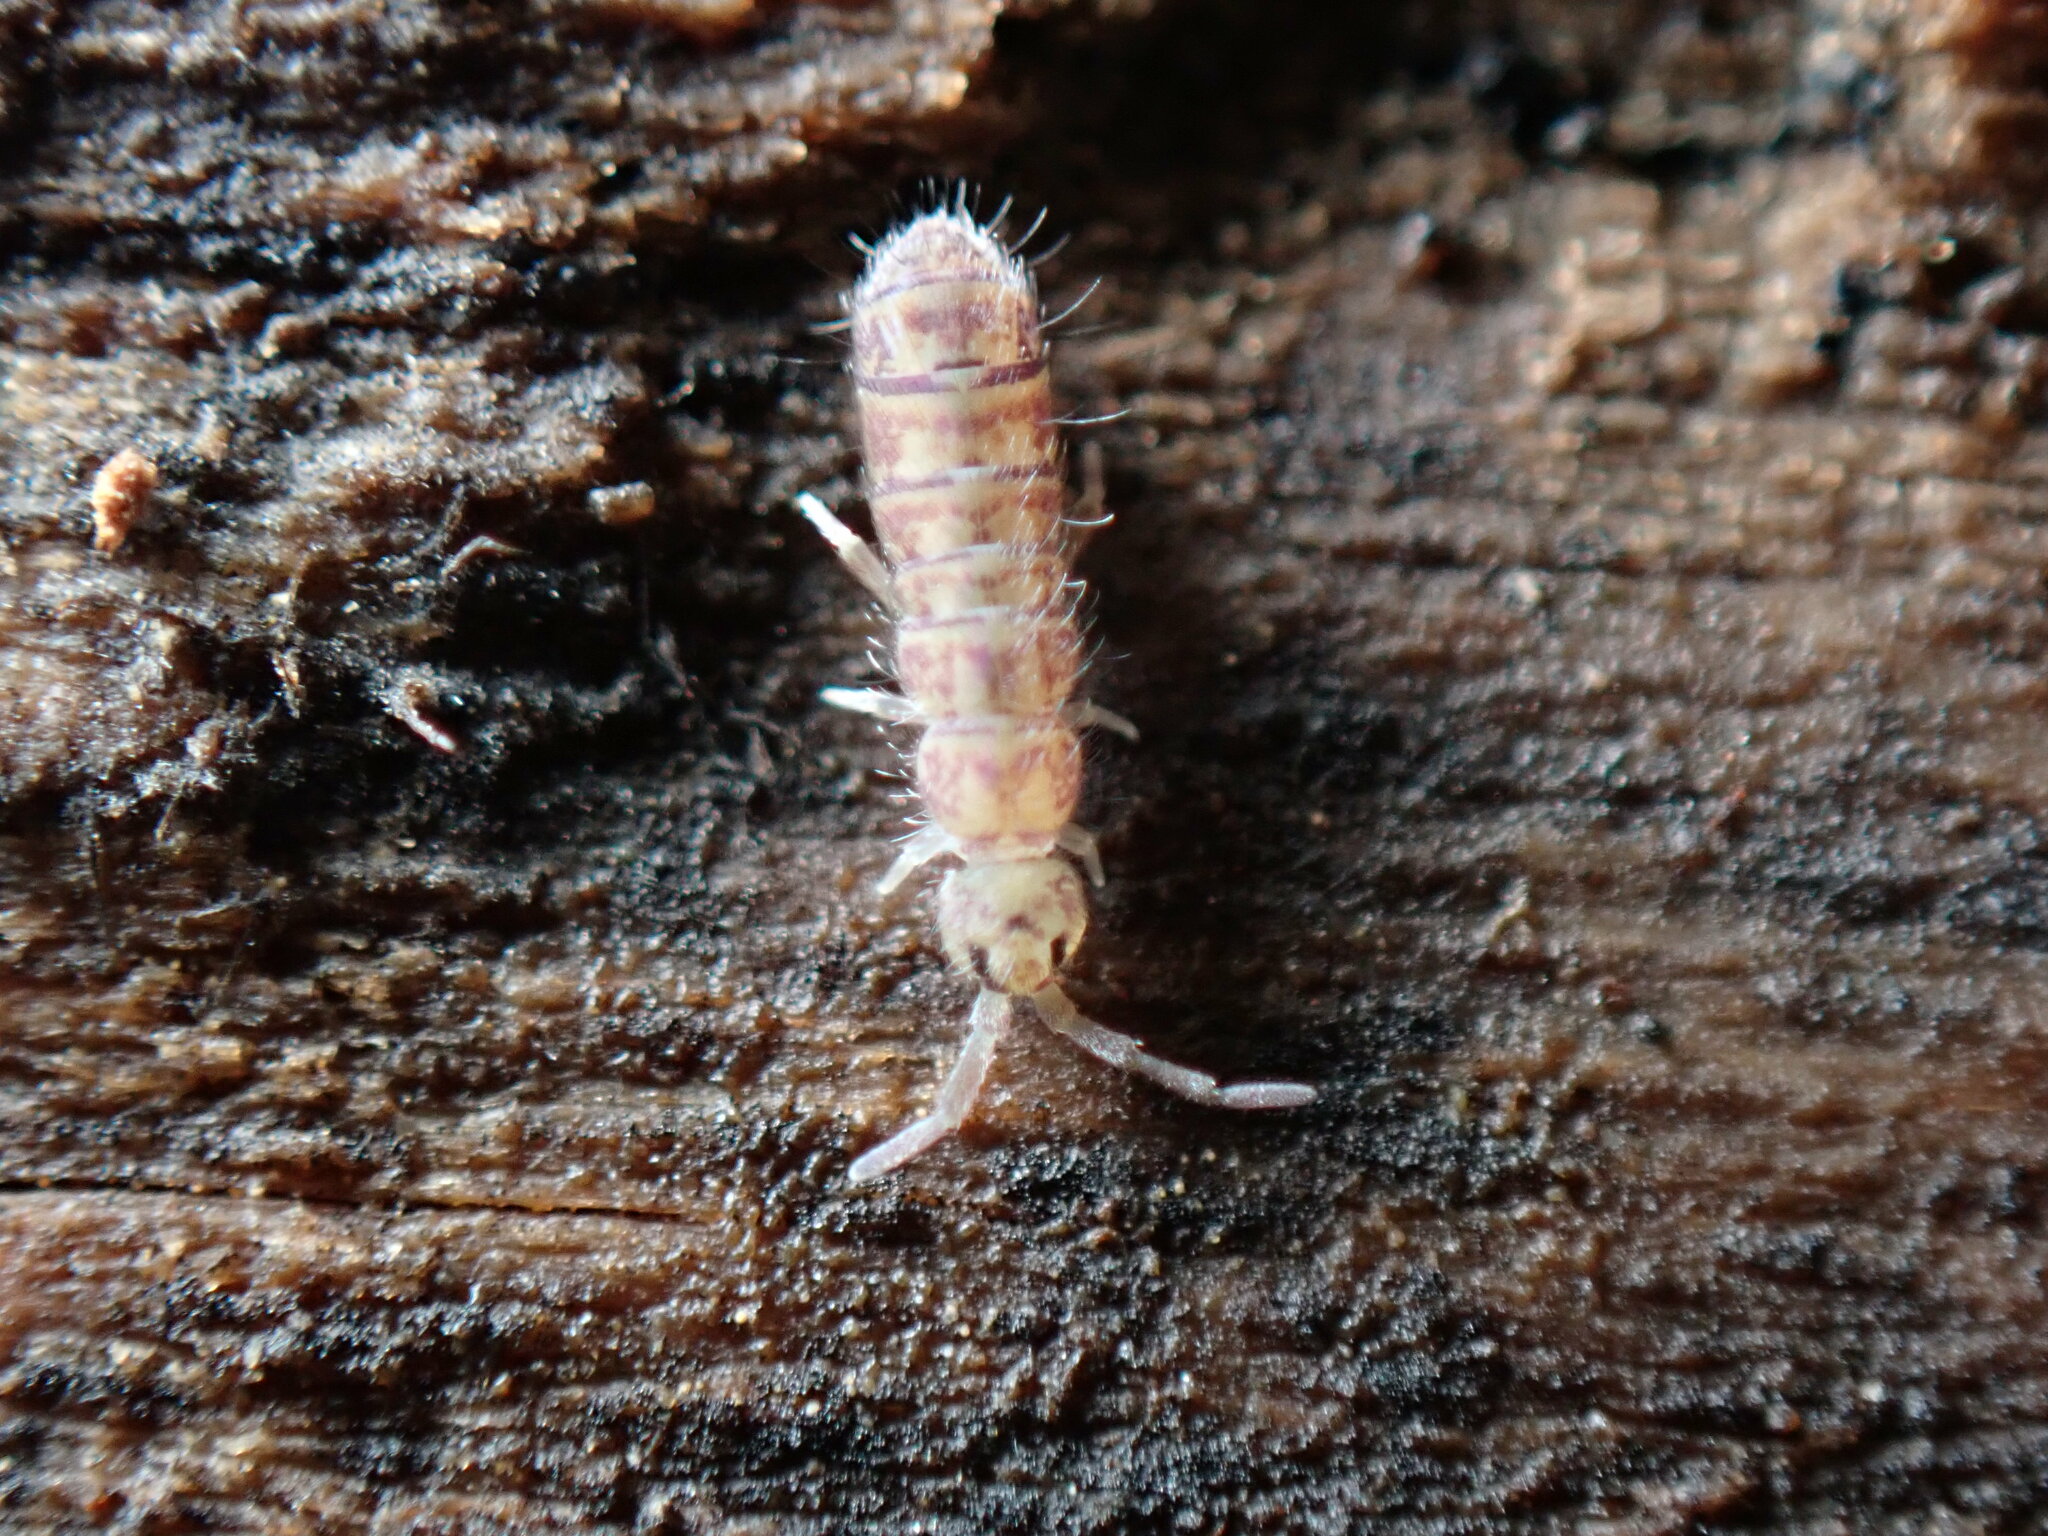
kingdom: Animalia
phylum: Arthropoda
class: Collembola
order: Entomobryomorpha
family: Isotomidae
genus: Isotoma
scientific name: Isotoma delta
